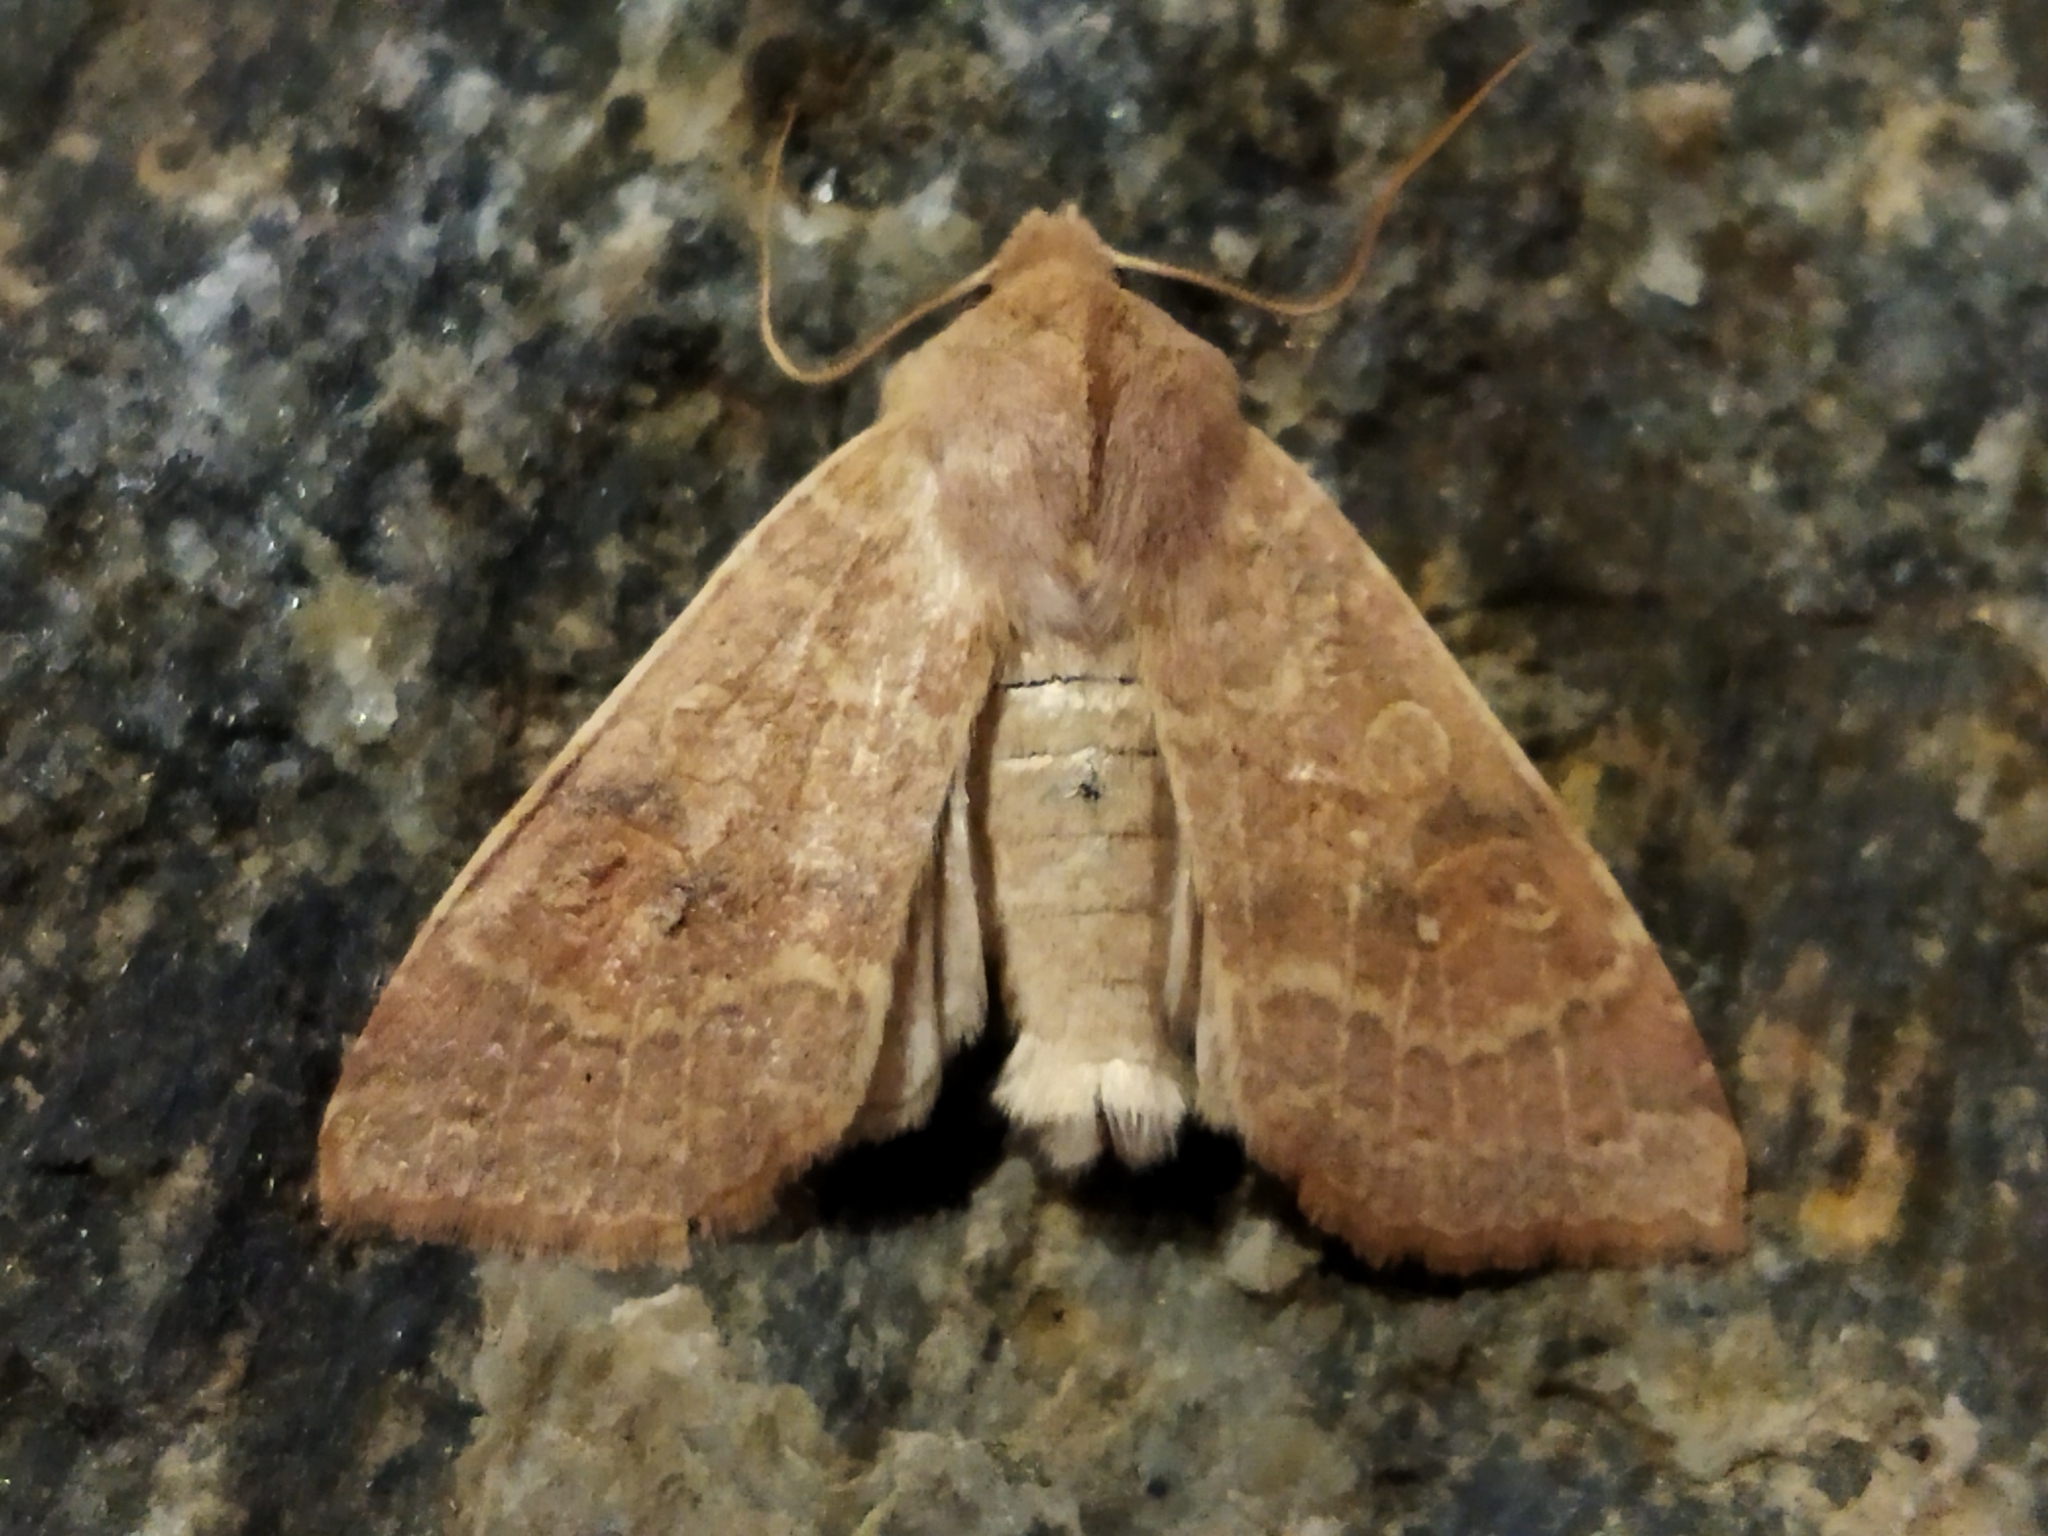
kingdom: Animalia
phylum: Arthropoda
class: Insecta
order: Lepidoptera
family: Noctuidae
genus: Xanthia
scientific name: Xanthia ocellaris
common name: Pale-lemon sallow
